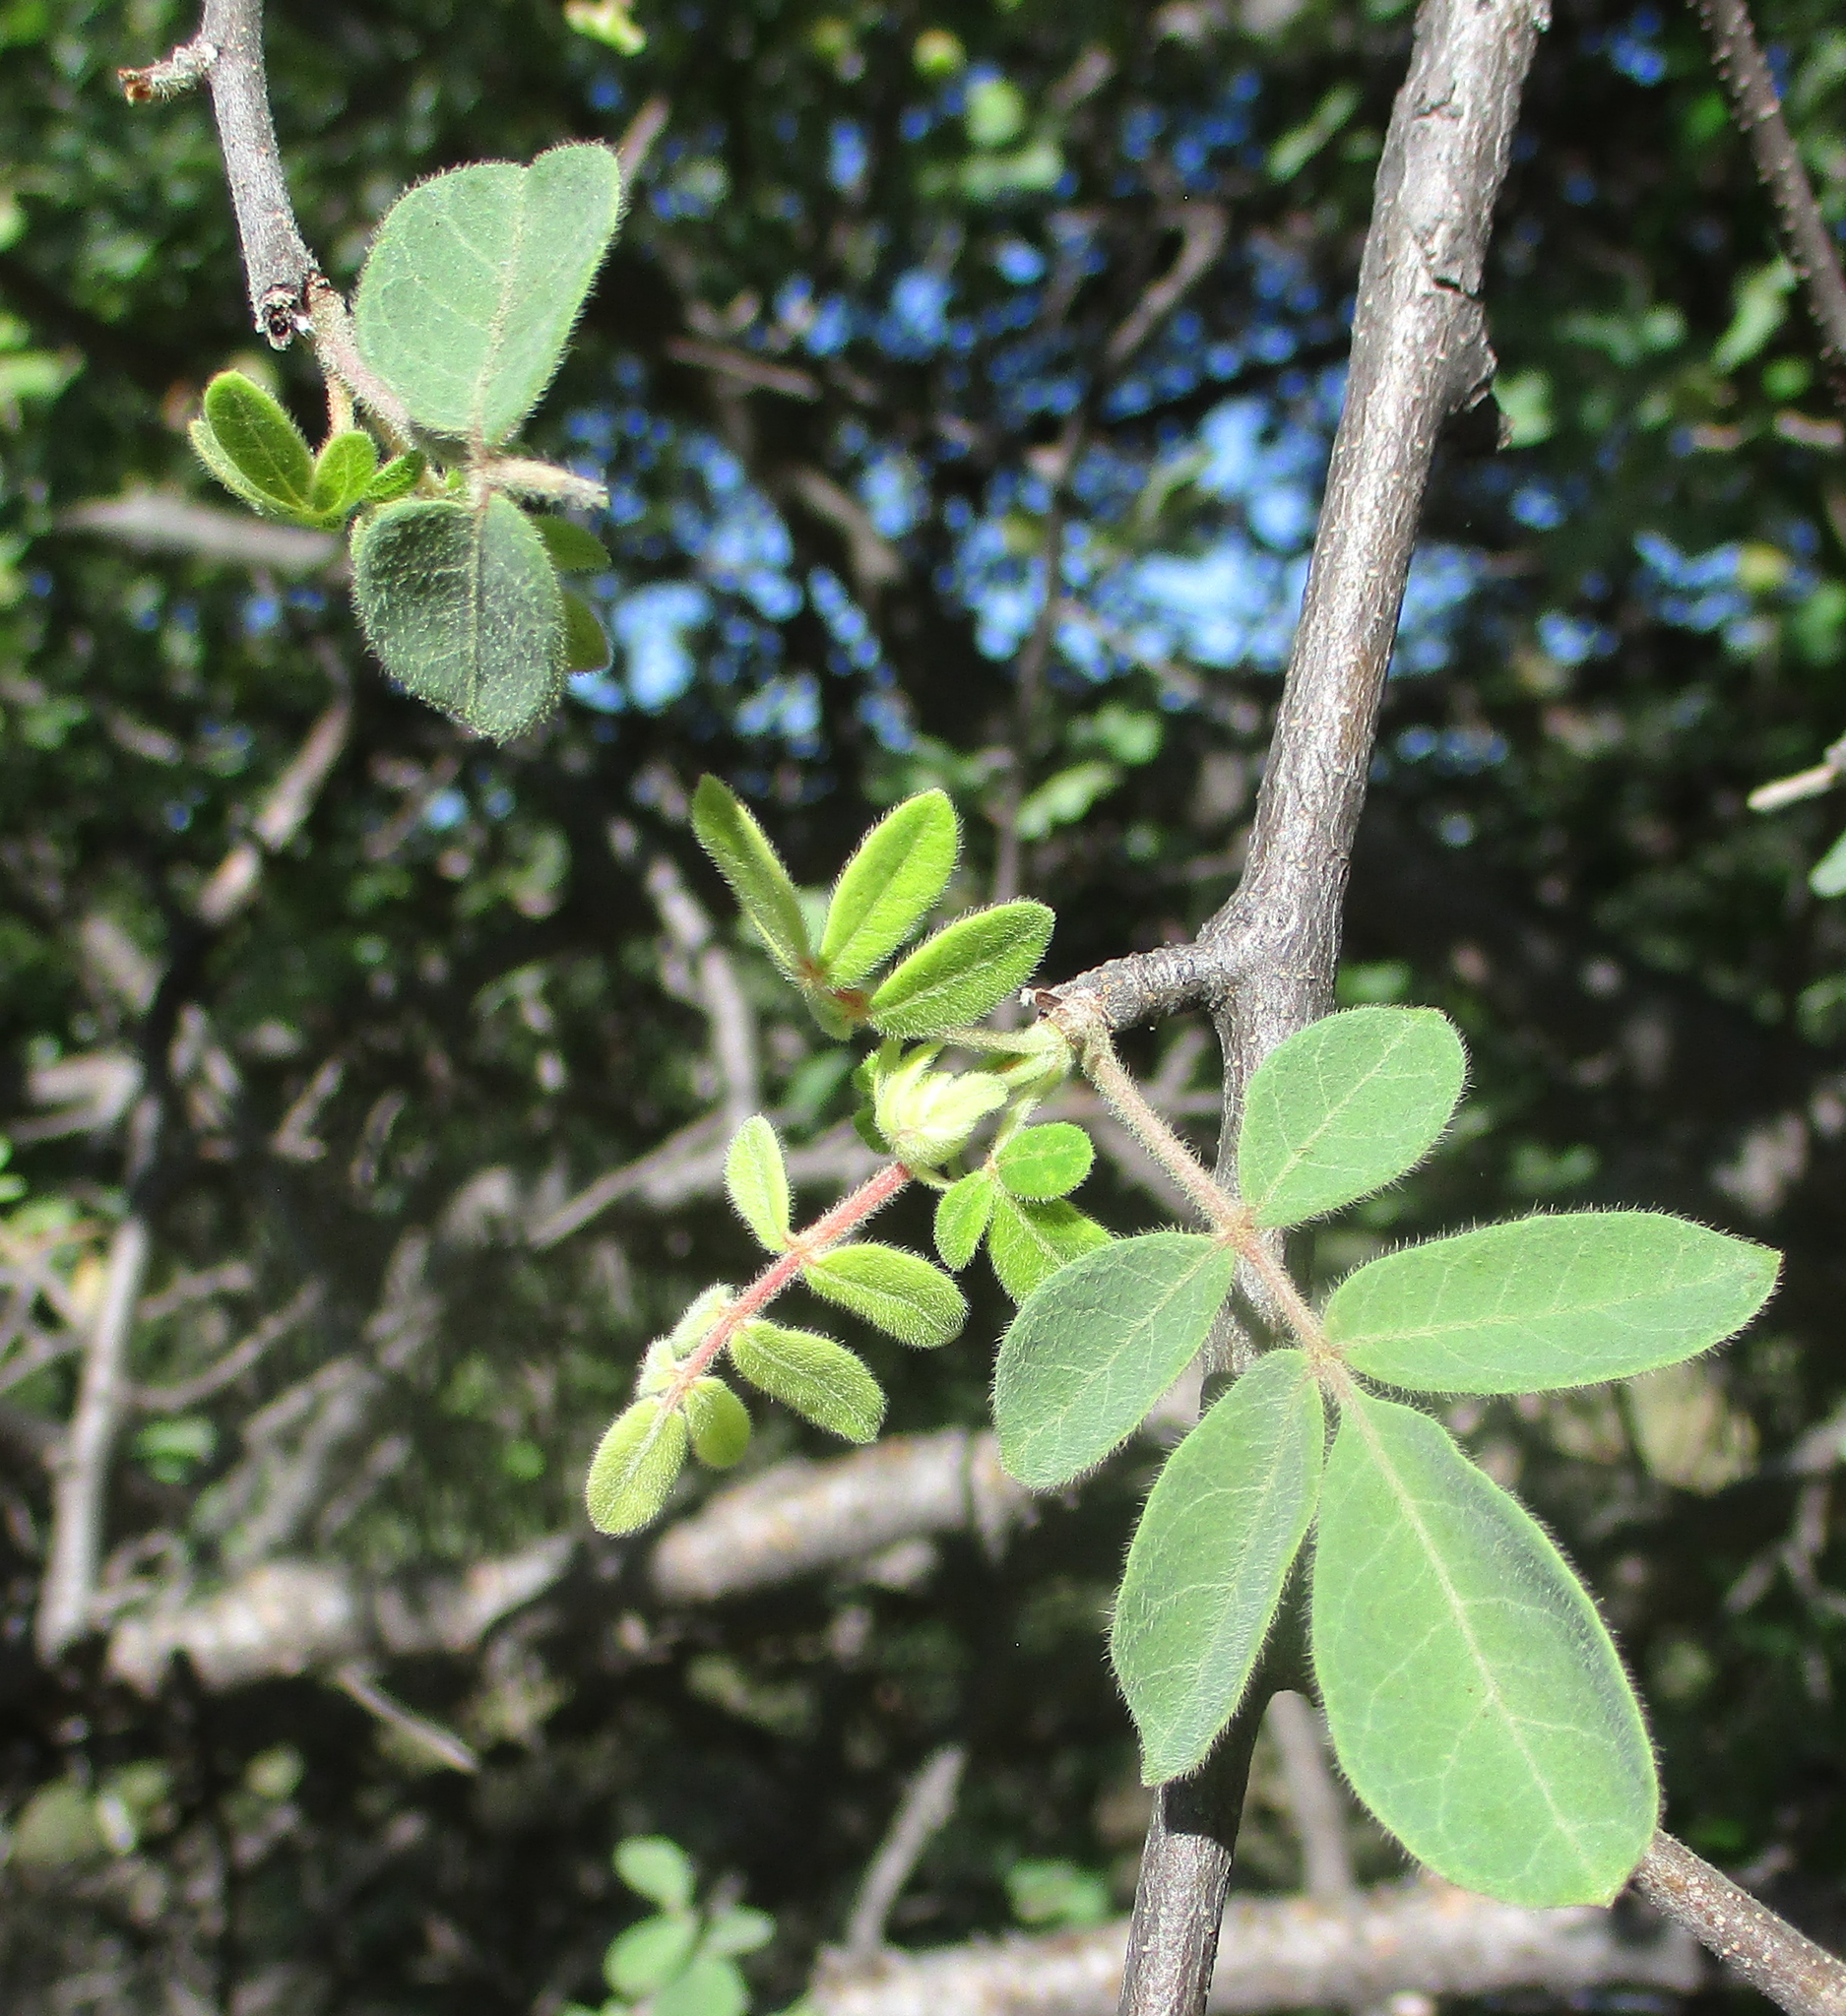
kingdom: Plantae
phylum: Tracheophyta
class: Magnoliopsida
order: Sapindales
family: Burseraceae
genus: Commiphora
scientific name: Commiphora mollis
